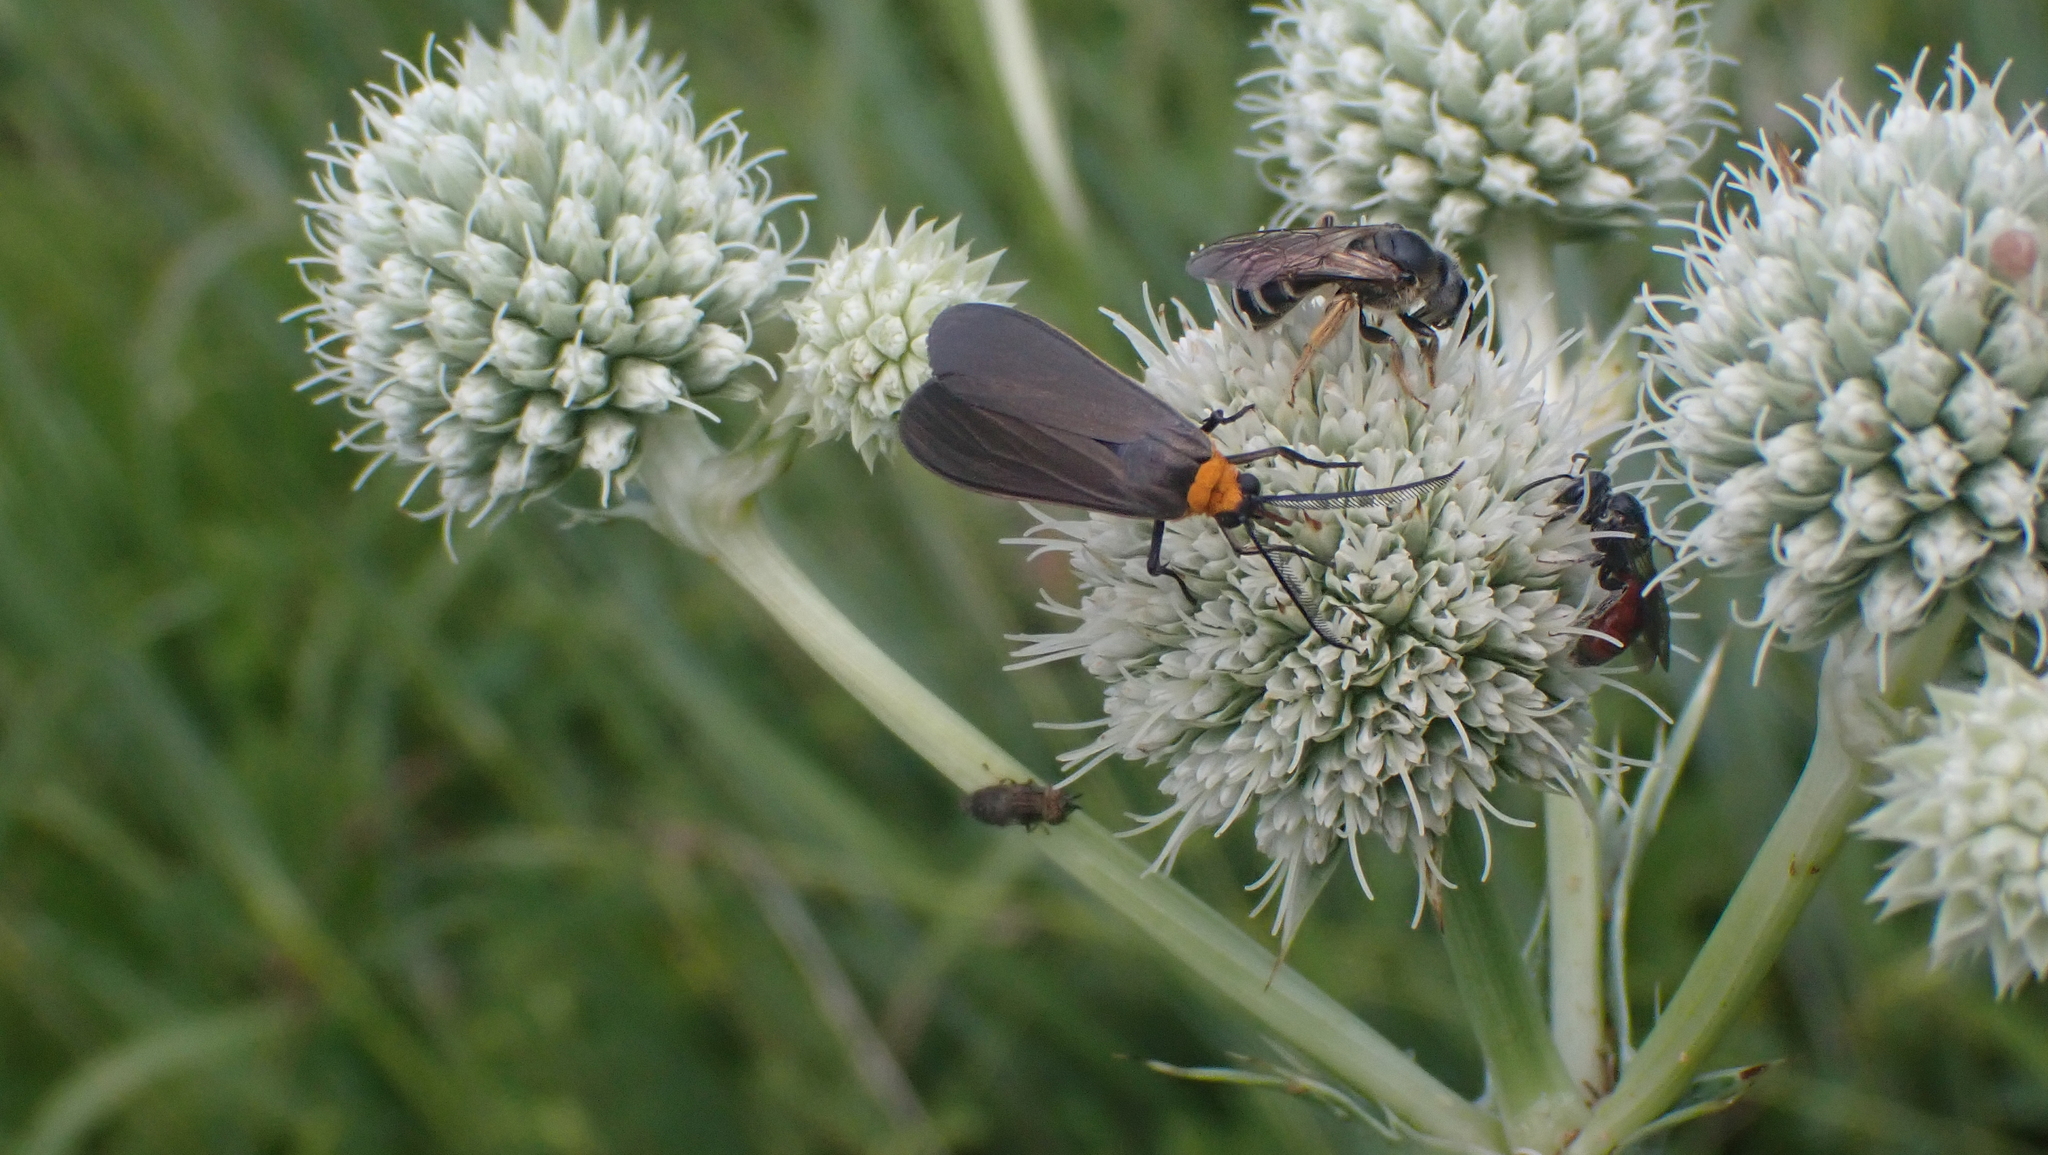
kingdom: Animalia
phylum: Arthropoda
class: Insecta
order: Lepidoptera
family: Erebidae
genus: Cisseps
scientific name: Cisseps fulvicollis
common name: Yellow-collared scape moth
